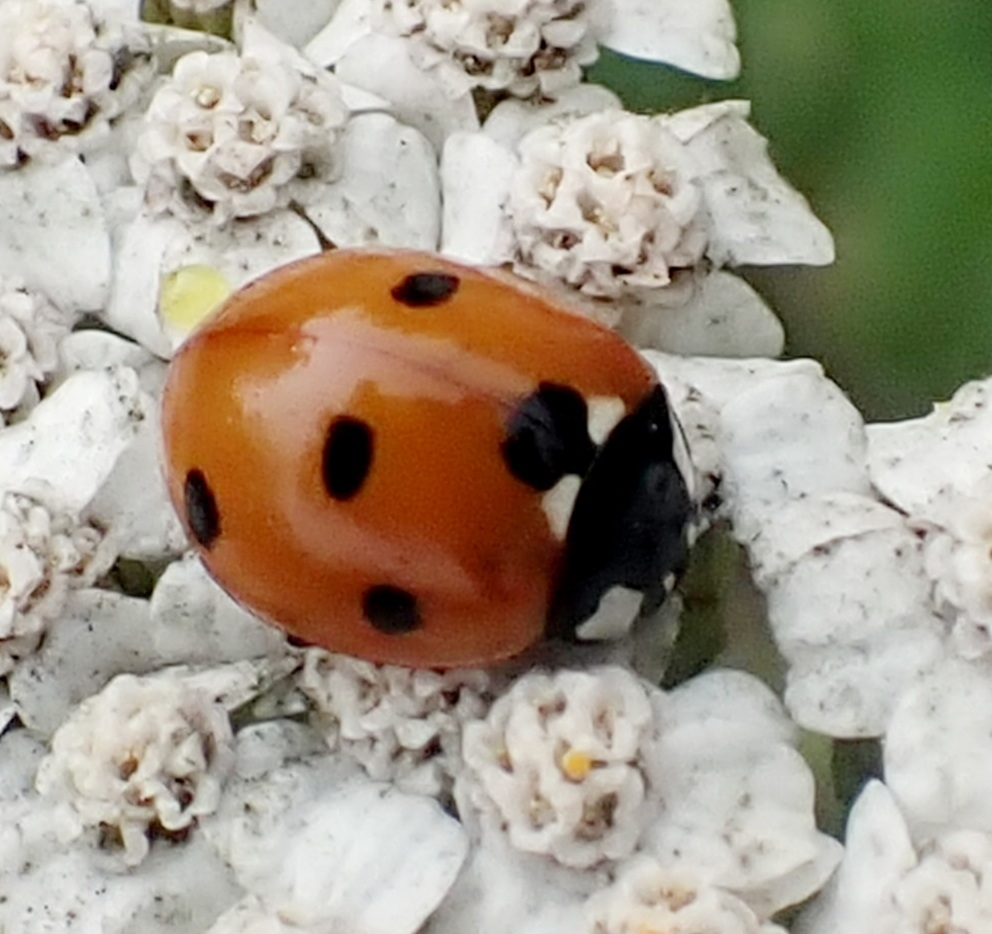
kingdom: Animalia
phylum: Arthropoda
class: Insecta
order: Coleoptera
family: Coccinellidae
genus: Coccinella
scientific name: Coccinella septempunctata
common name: Sevenspotted lady beetle
